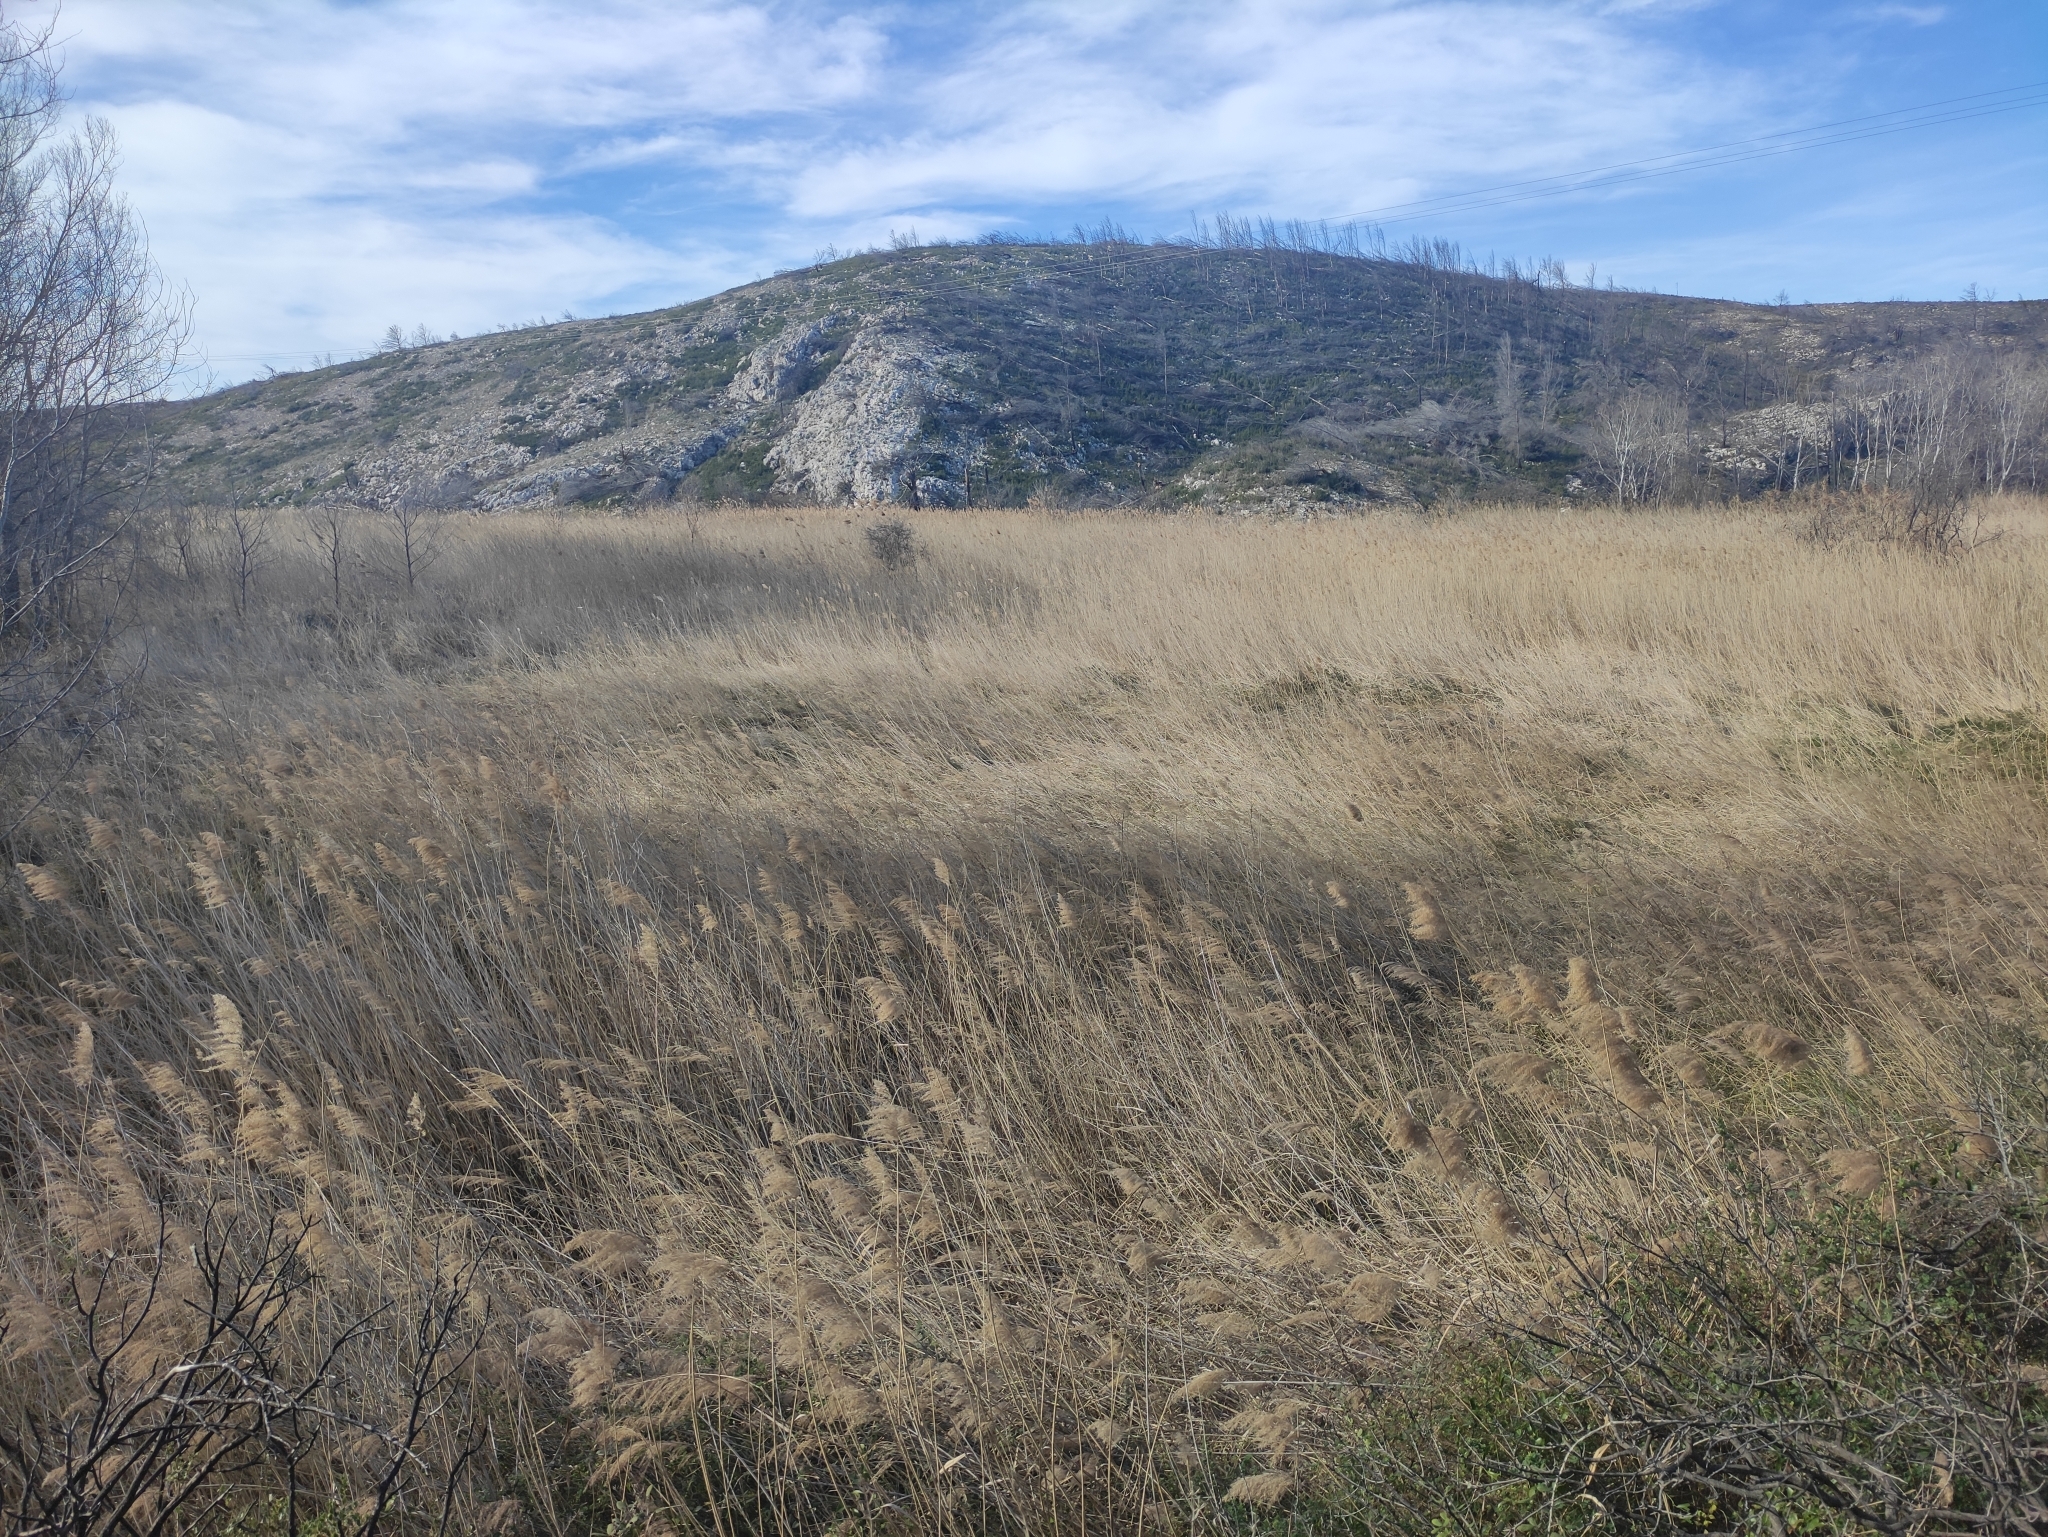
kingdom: Plantae
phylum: Tracheophyta
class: Liliopsida
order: Poales
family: Poaceae
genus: Phragmites
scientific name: Phragmites australis
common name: Common reed
